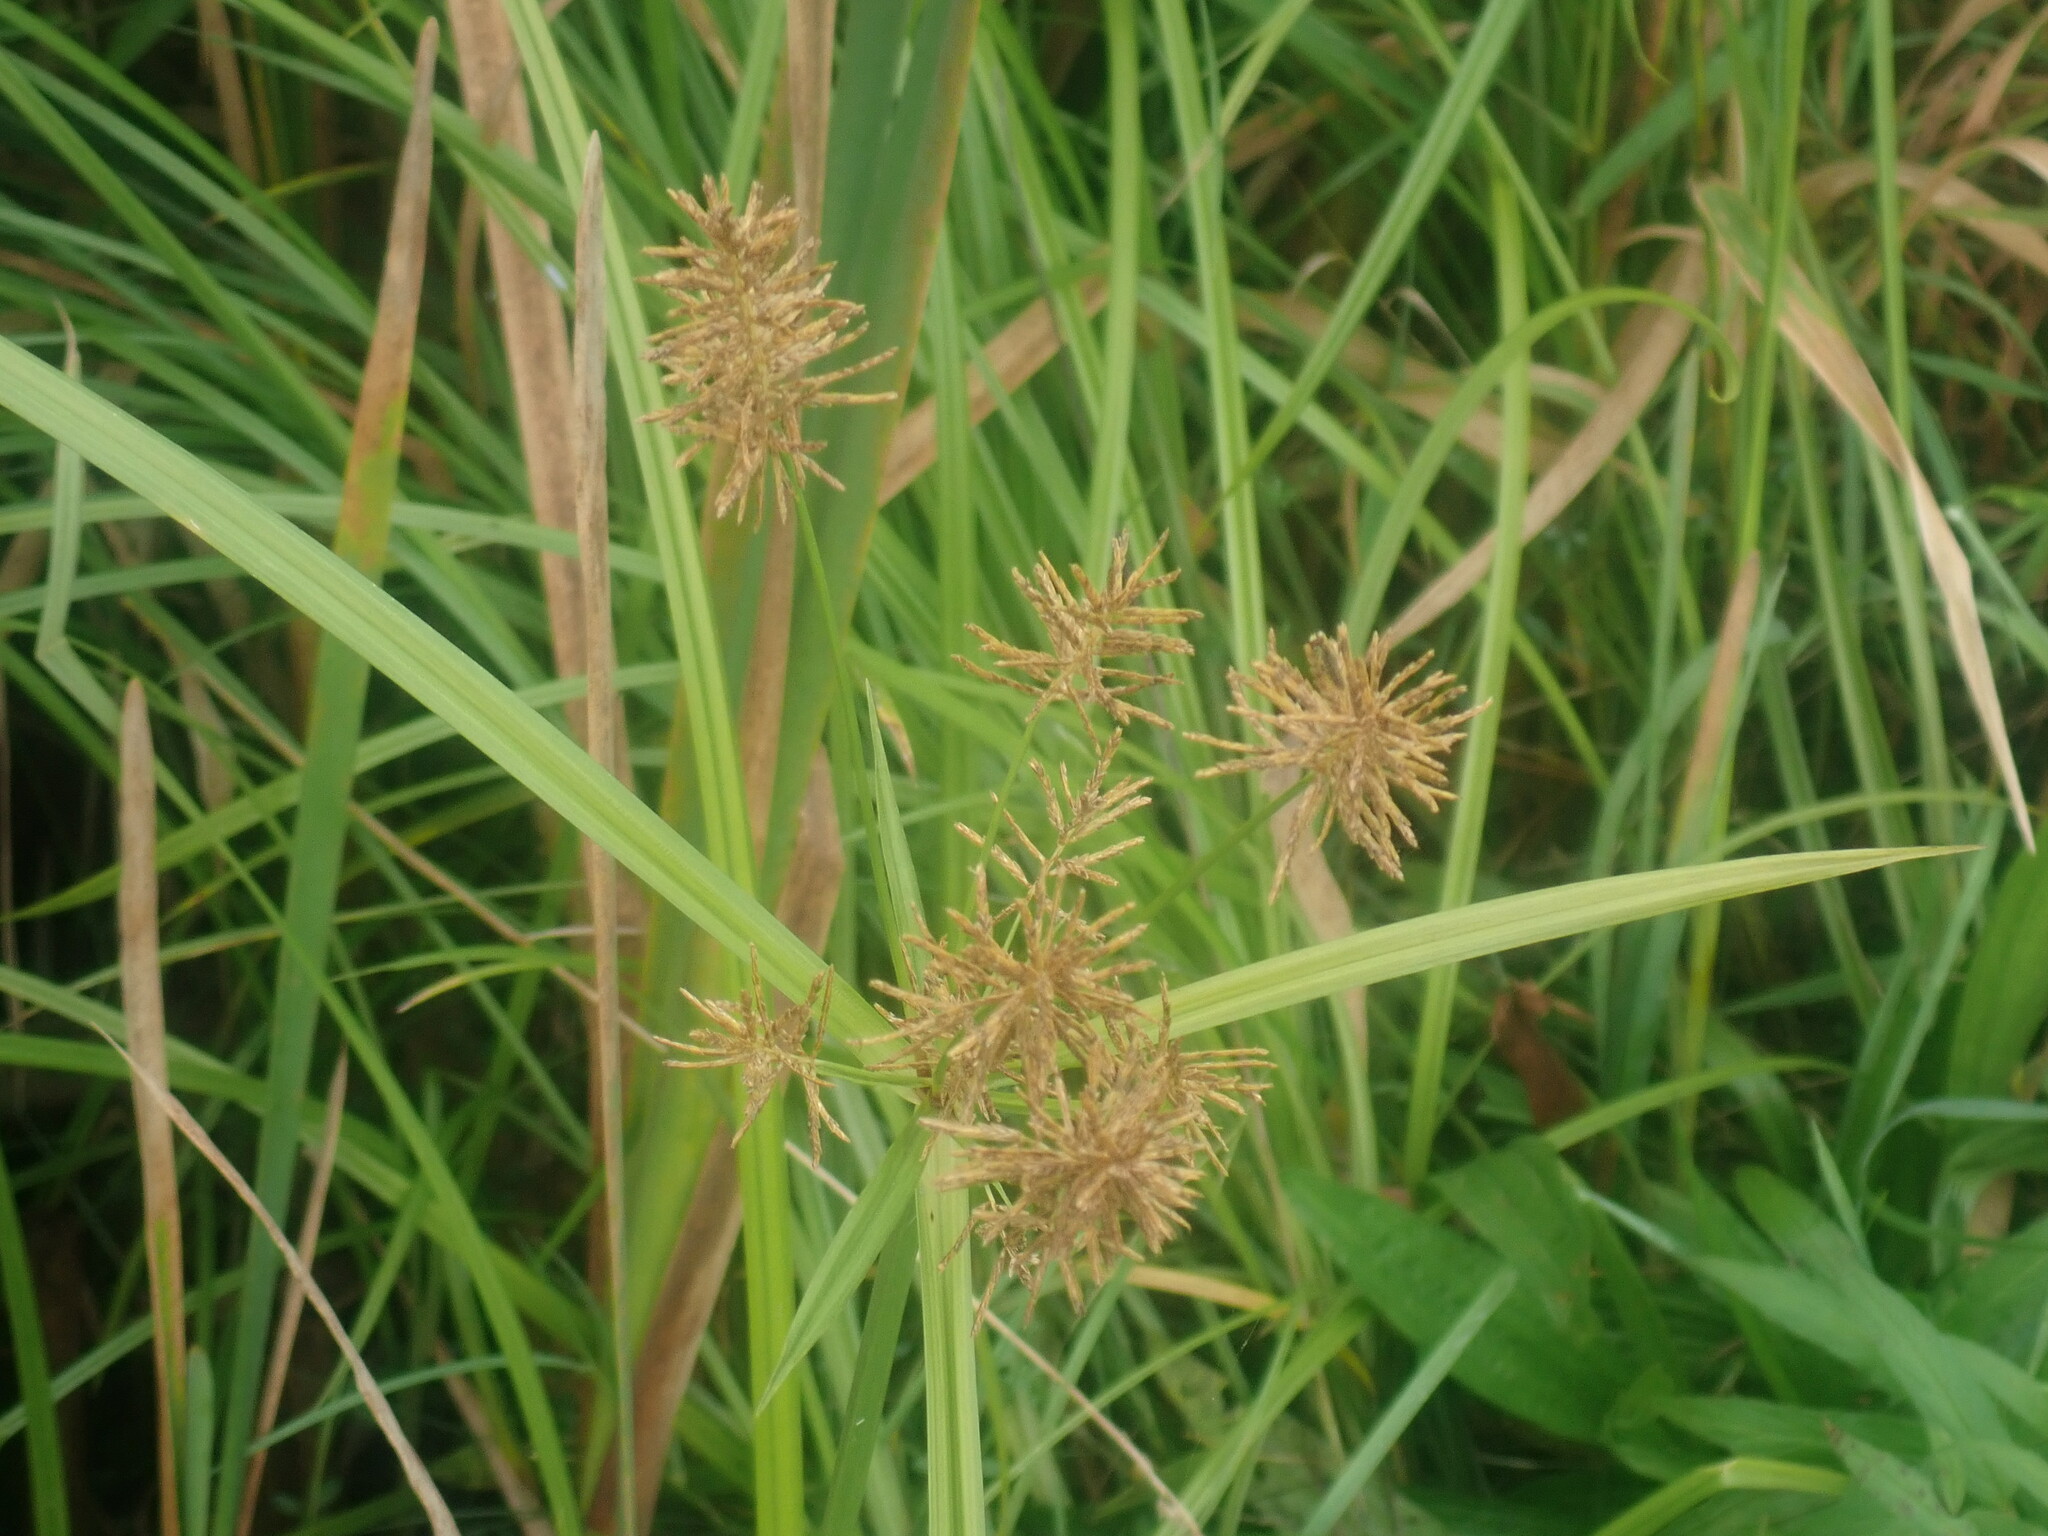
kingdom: Plantae
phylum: Tracheophyta
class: Liliopsida
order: Poales
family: Cyperaceae
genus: Cyperus
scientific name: Cyperus esculentus
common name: Yellow nutsedge
